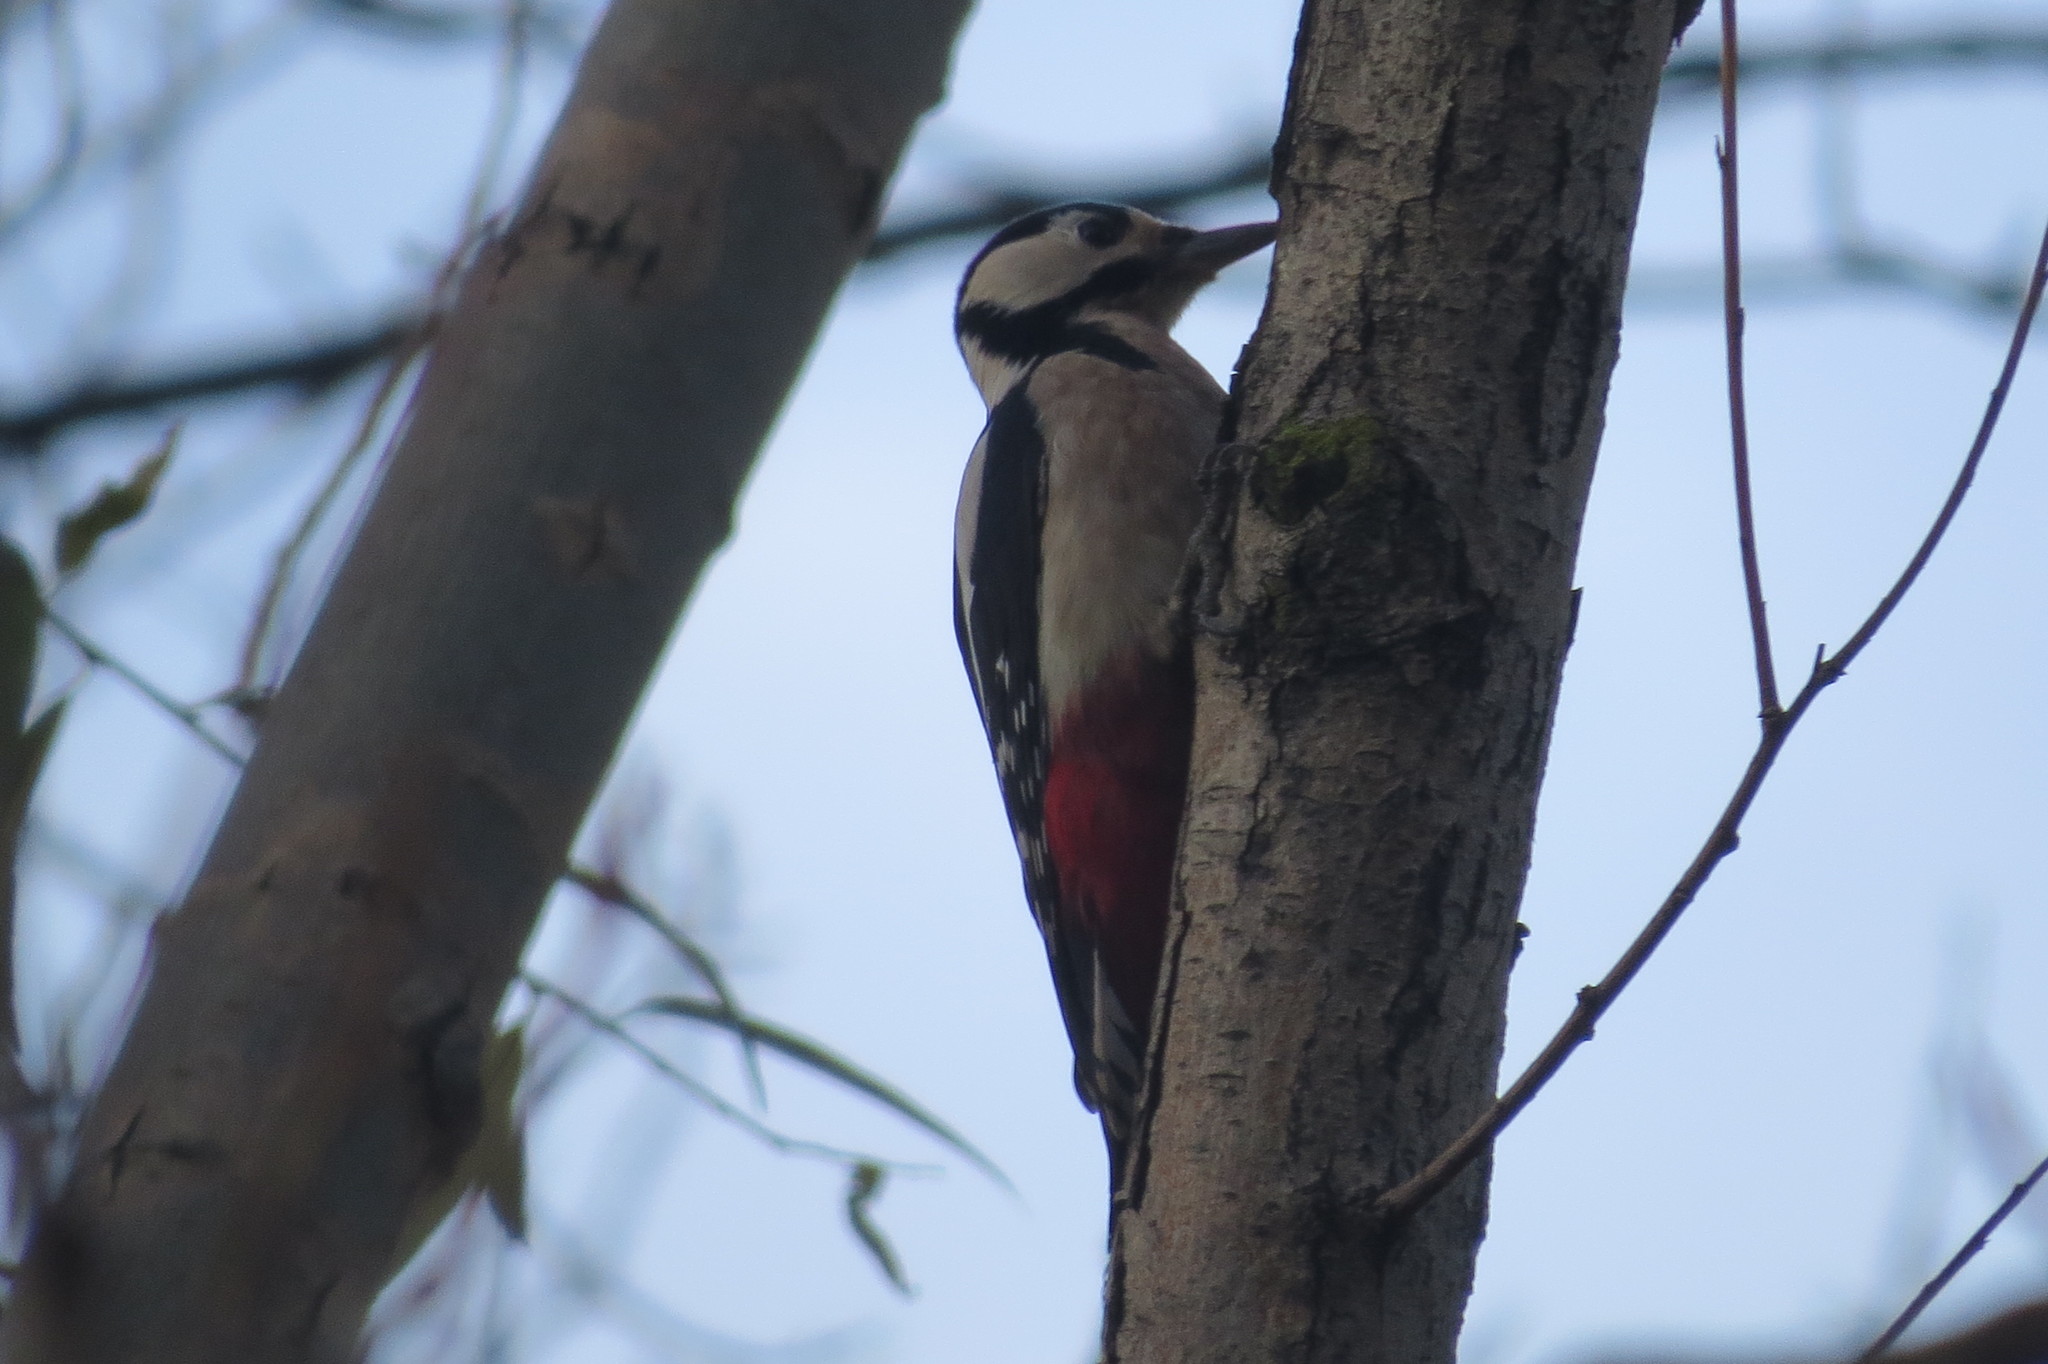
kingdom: Animalia
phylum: Chordata
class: Aves
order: Piciformes
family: Picidae
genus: Dendrocopos
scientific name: Dendrocopos major
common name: Great spotted woodpecker
